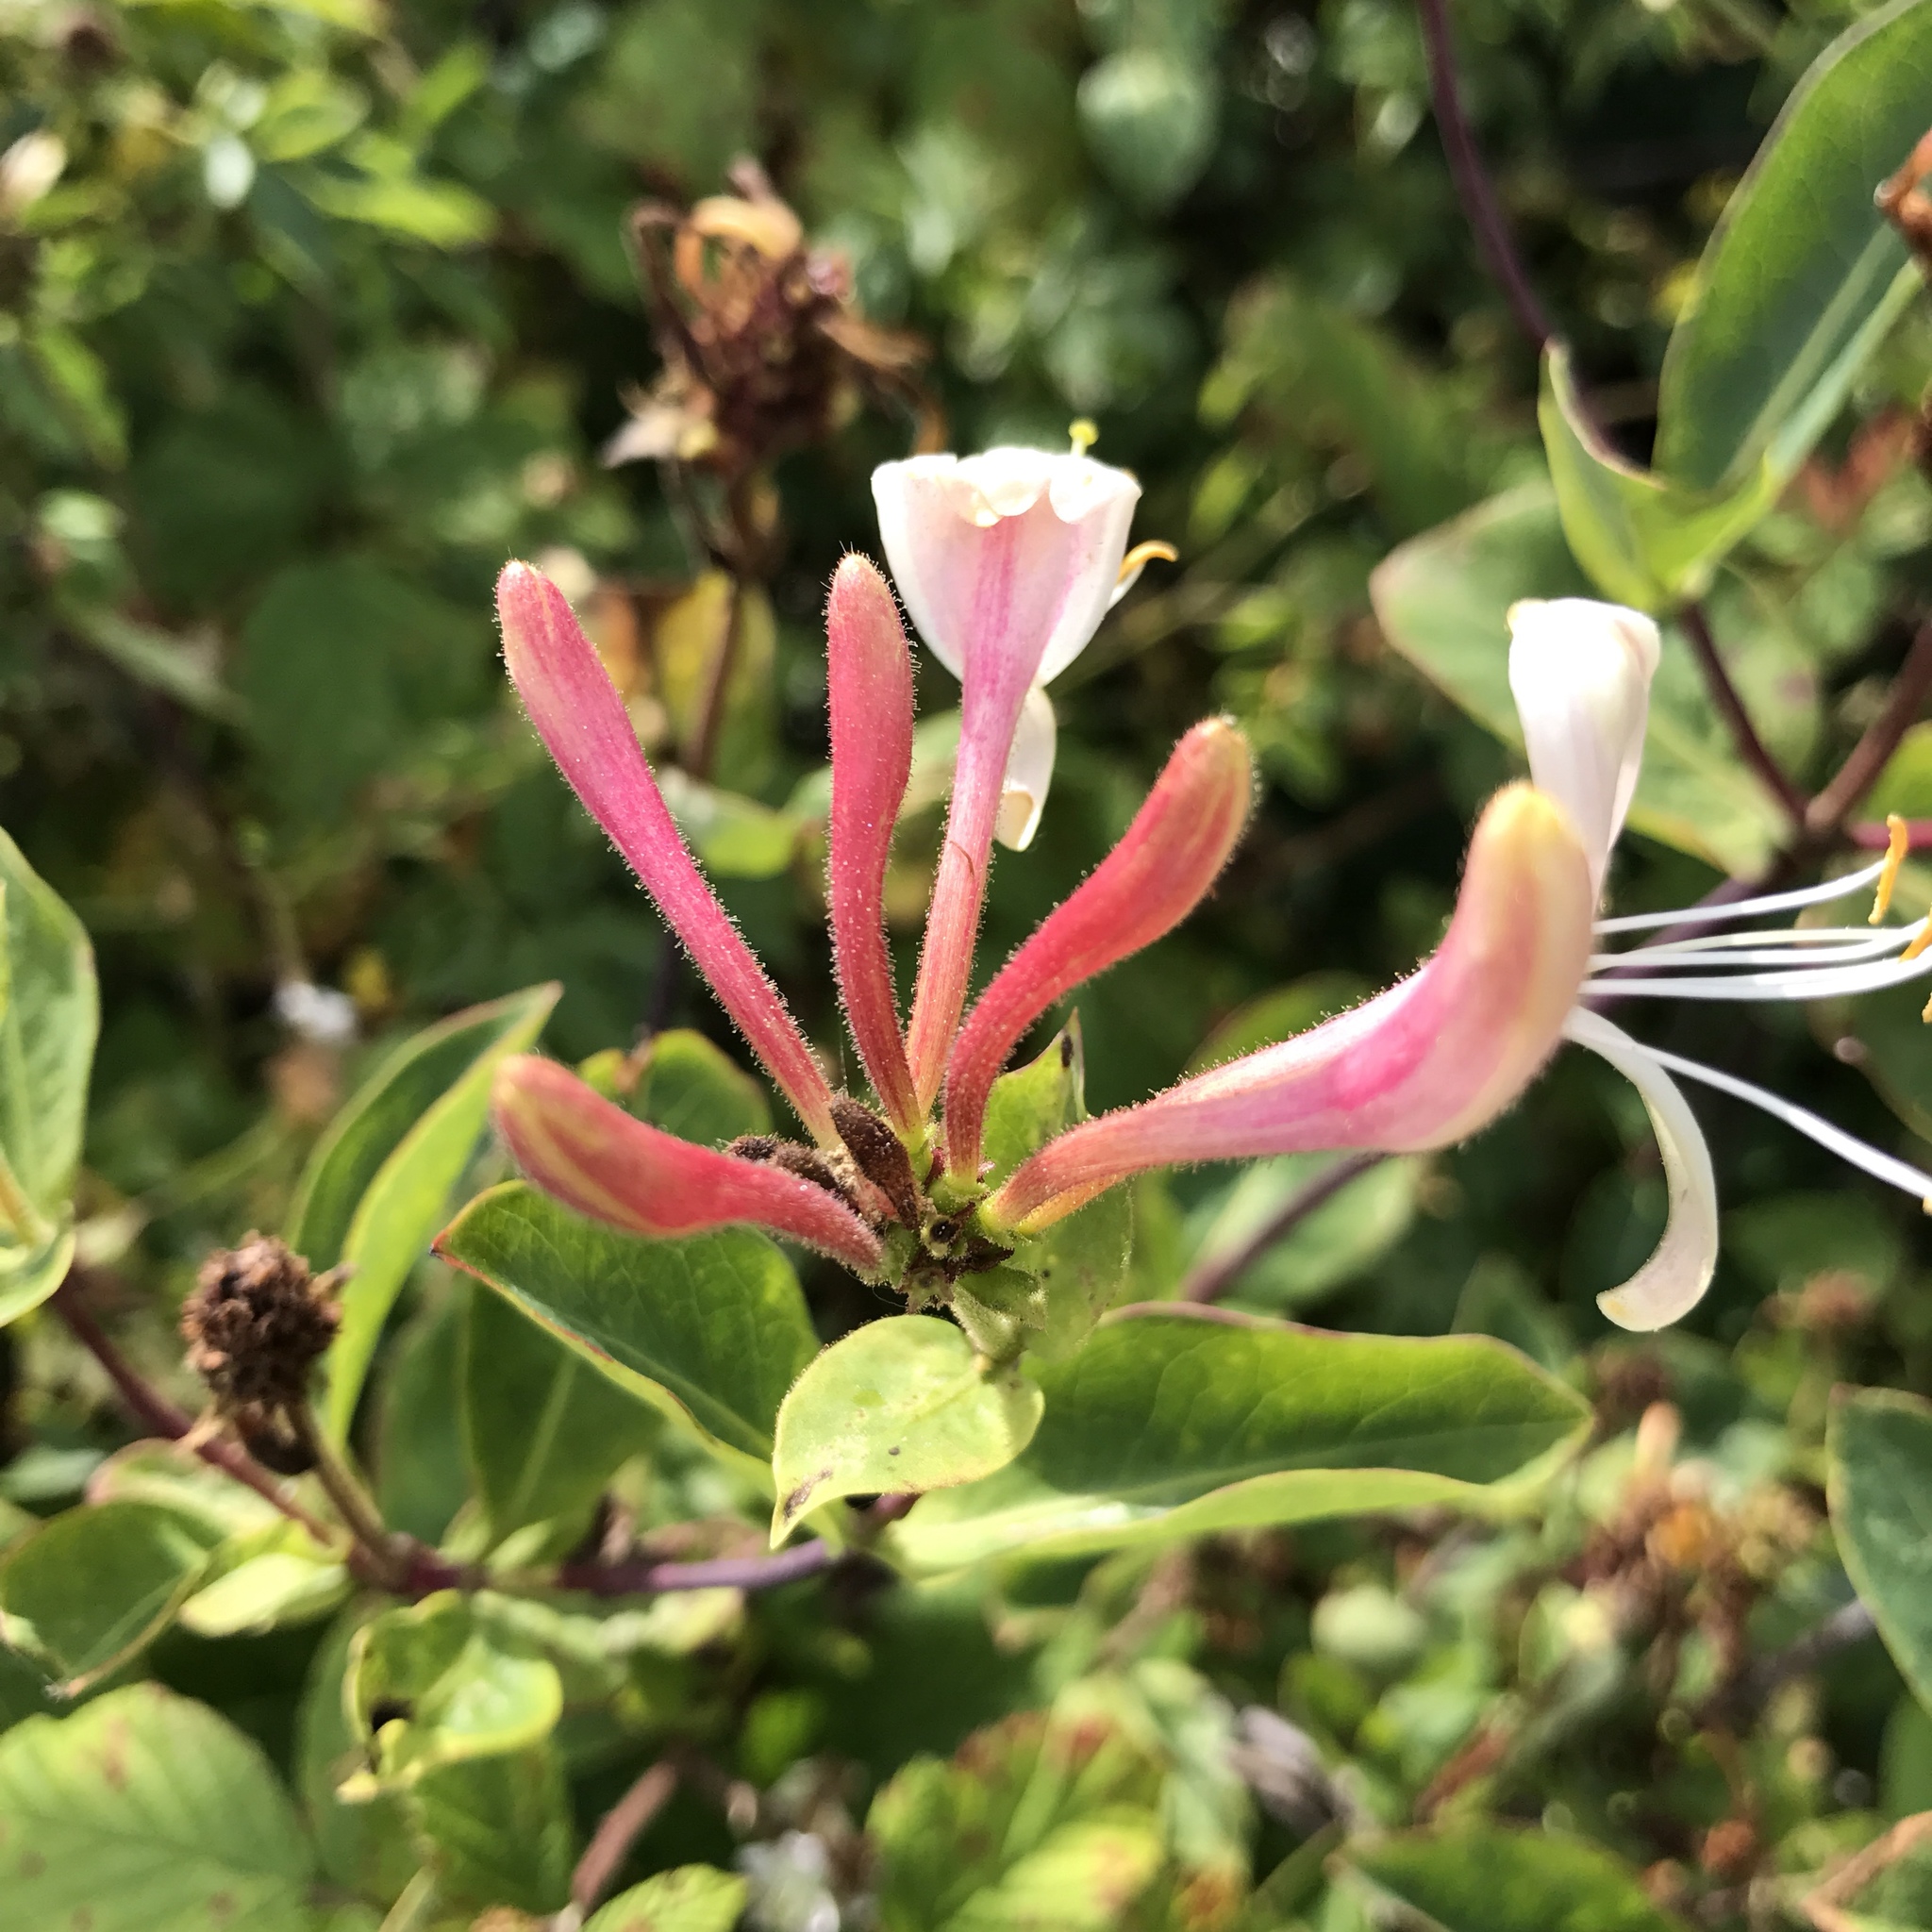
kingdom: Plantae
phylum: Tracheophyta
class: Magnoliopsida
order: Dipsacales
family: Caprifoliaceae
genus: Lonicera
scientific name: Lonicera periclymenum
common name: European honeysuckle
